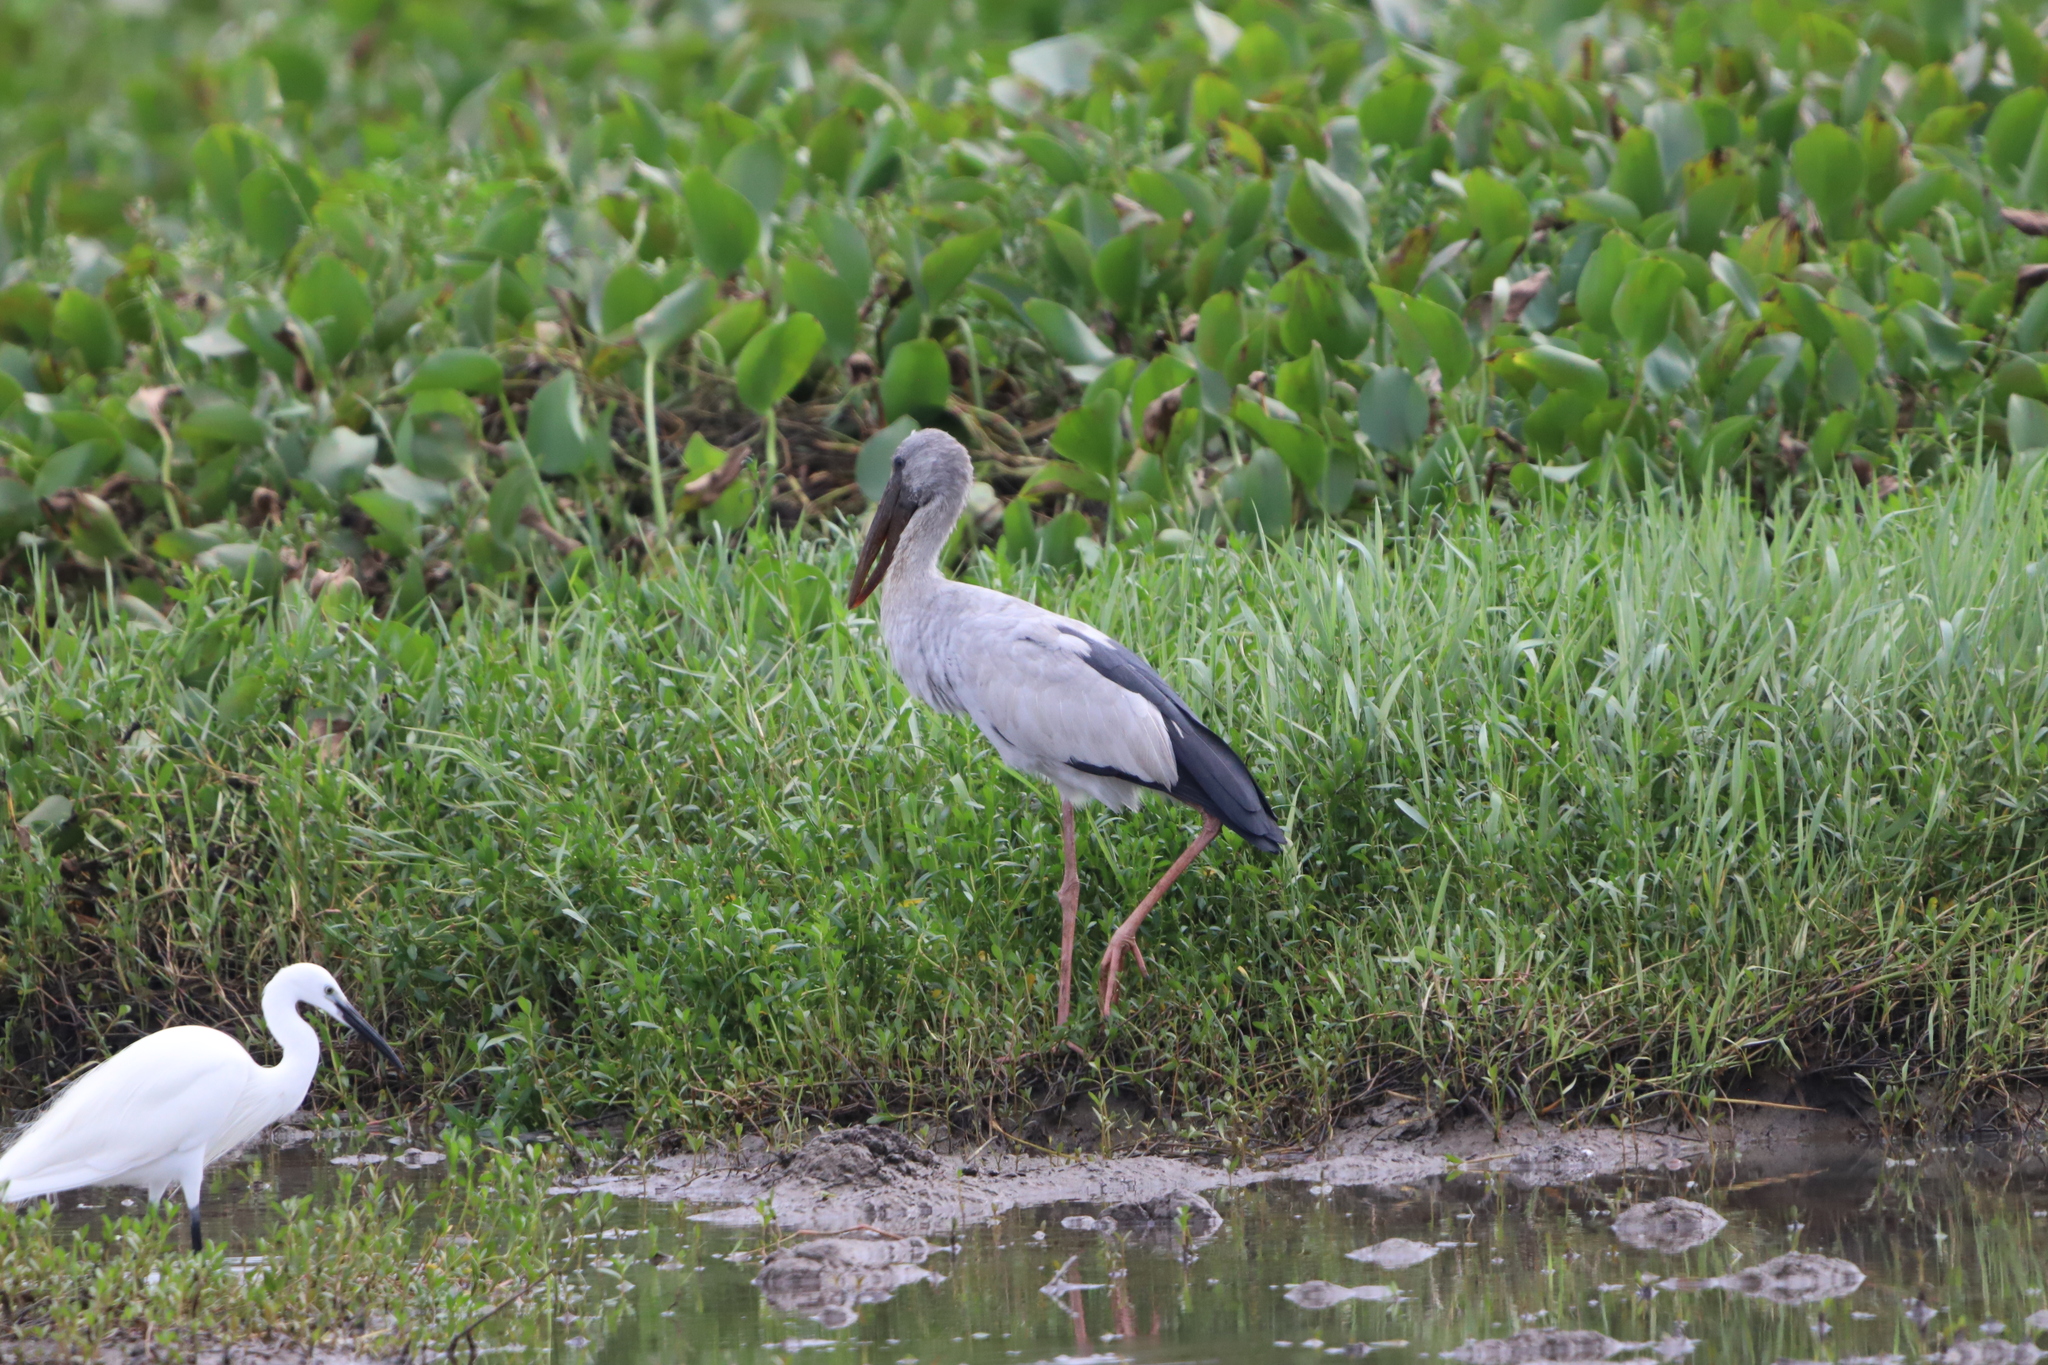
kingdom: Animalia
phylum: Chordata
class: Aves
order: Ciconiiformes
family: Ciconiidae
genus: Anastomus
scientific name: Anastomus oscitans
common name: Asian openbill
